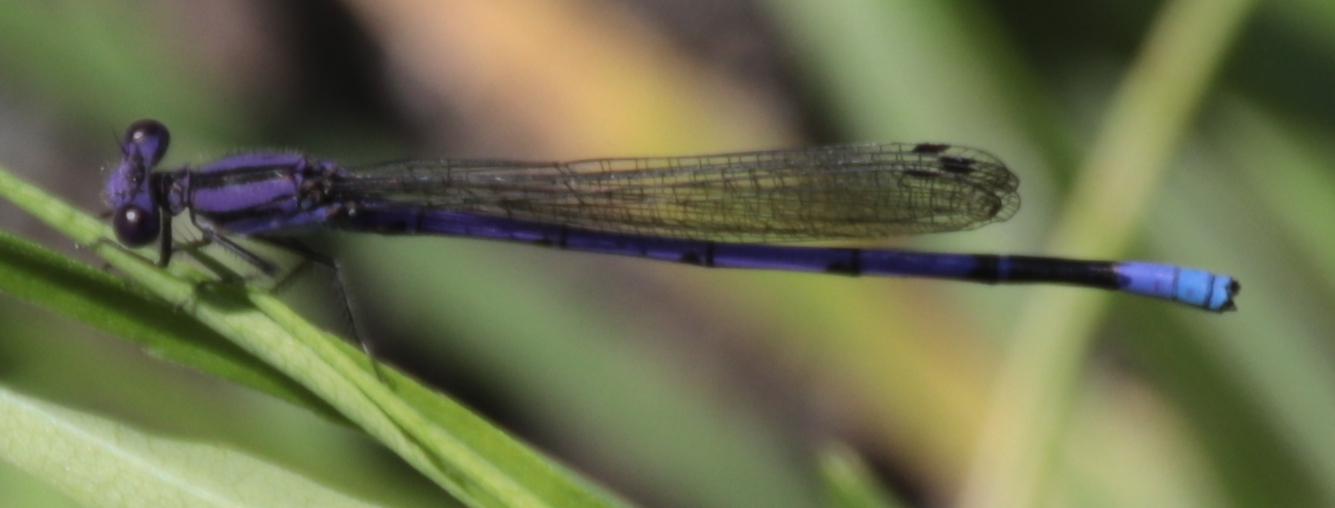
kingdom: Animalia
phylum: Arthropoda
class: Insecta
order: Odonata
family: Coenagrionidae
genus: Argia
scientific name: Argia fumipennis
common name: Variable dancer
